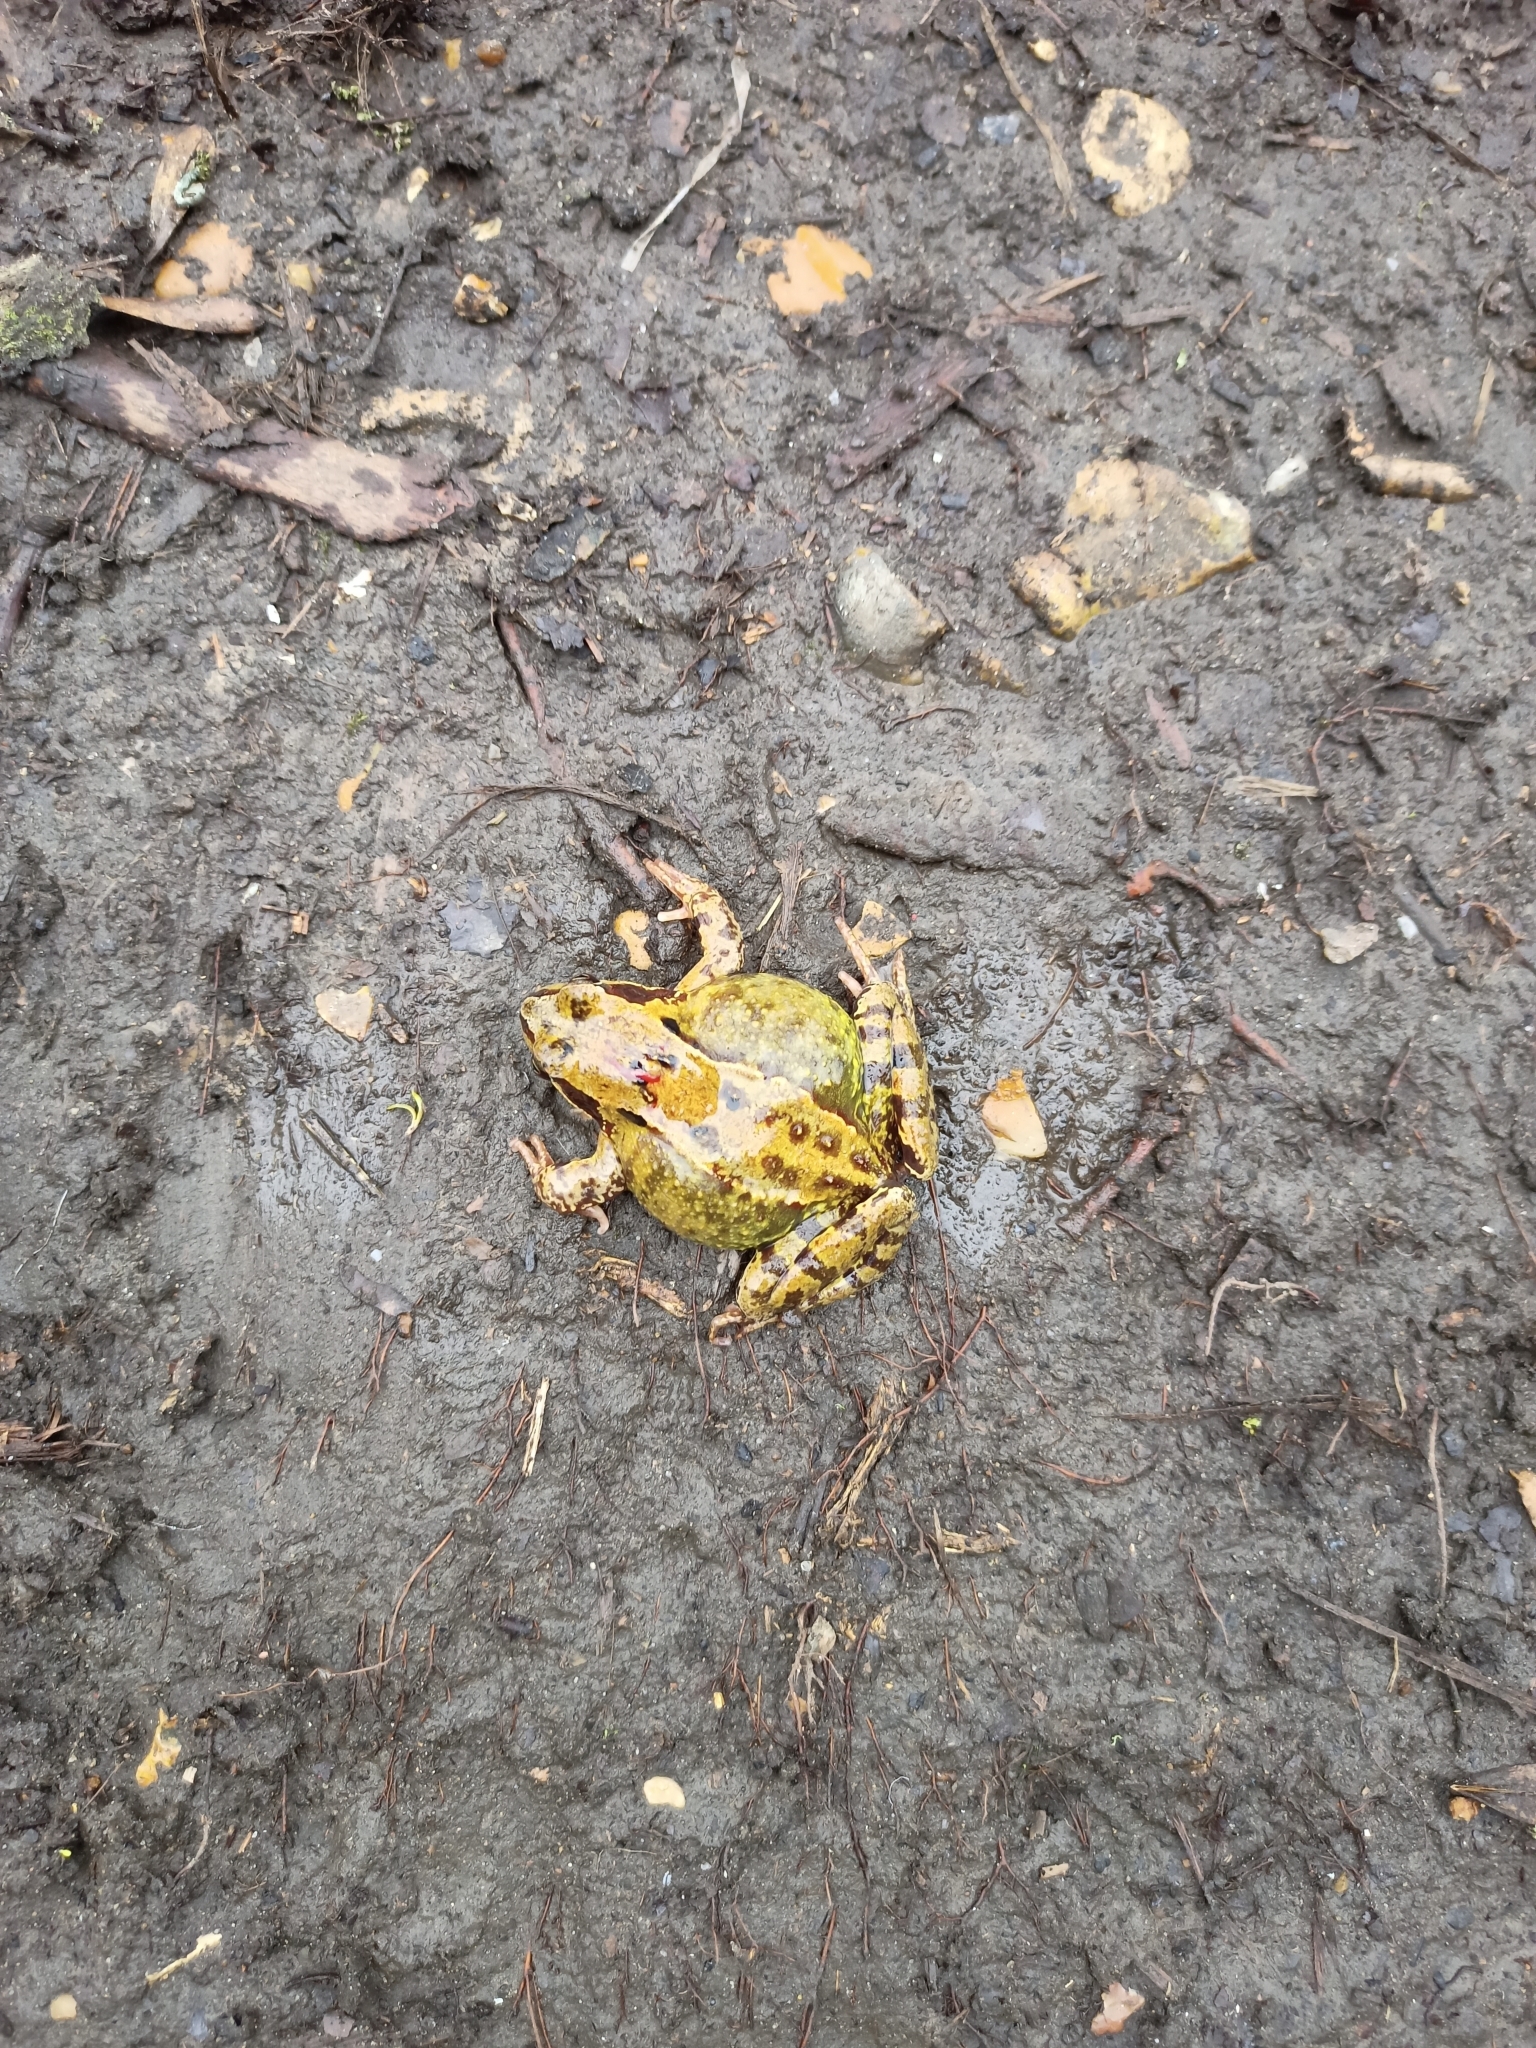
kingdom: Animalia
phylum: Chordata
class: Amphibia
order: Anura
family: Ranidae
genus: Rana
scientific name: Rana temporaria
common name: Common frog
